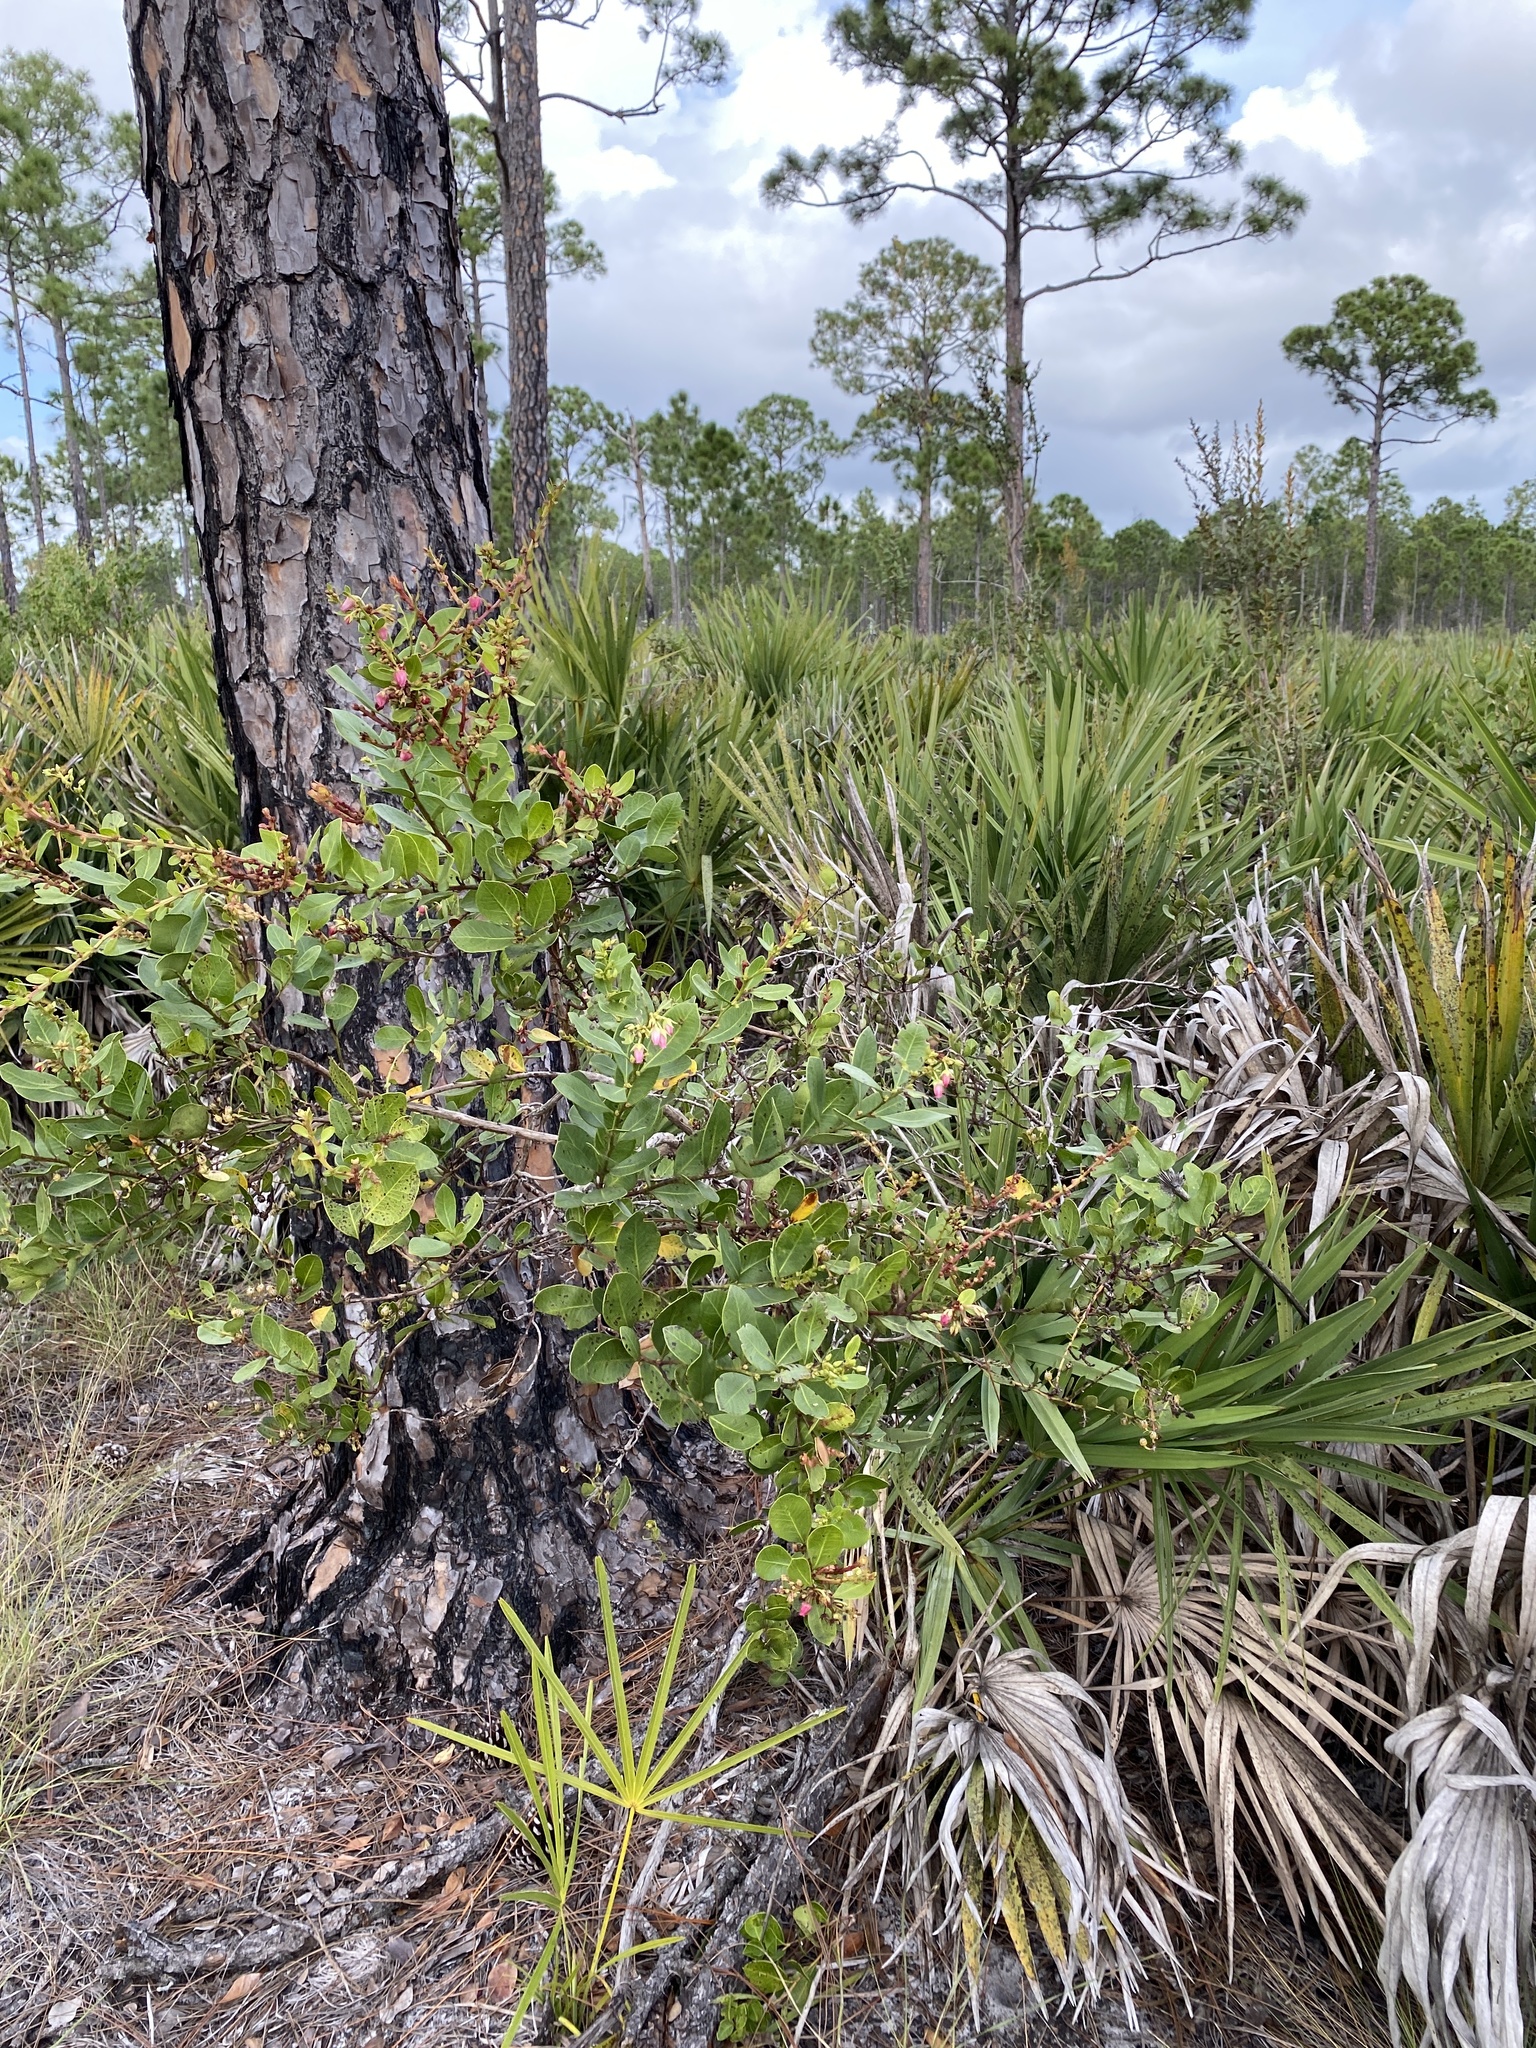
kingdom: Plantae
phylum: Tracheophyta
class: Magnoliopsida
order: Ericales
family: Ericaceae
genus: Lyonia
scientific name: Lyonia lucida
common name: Fetterbush
